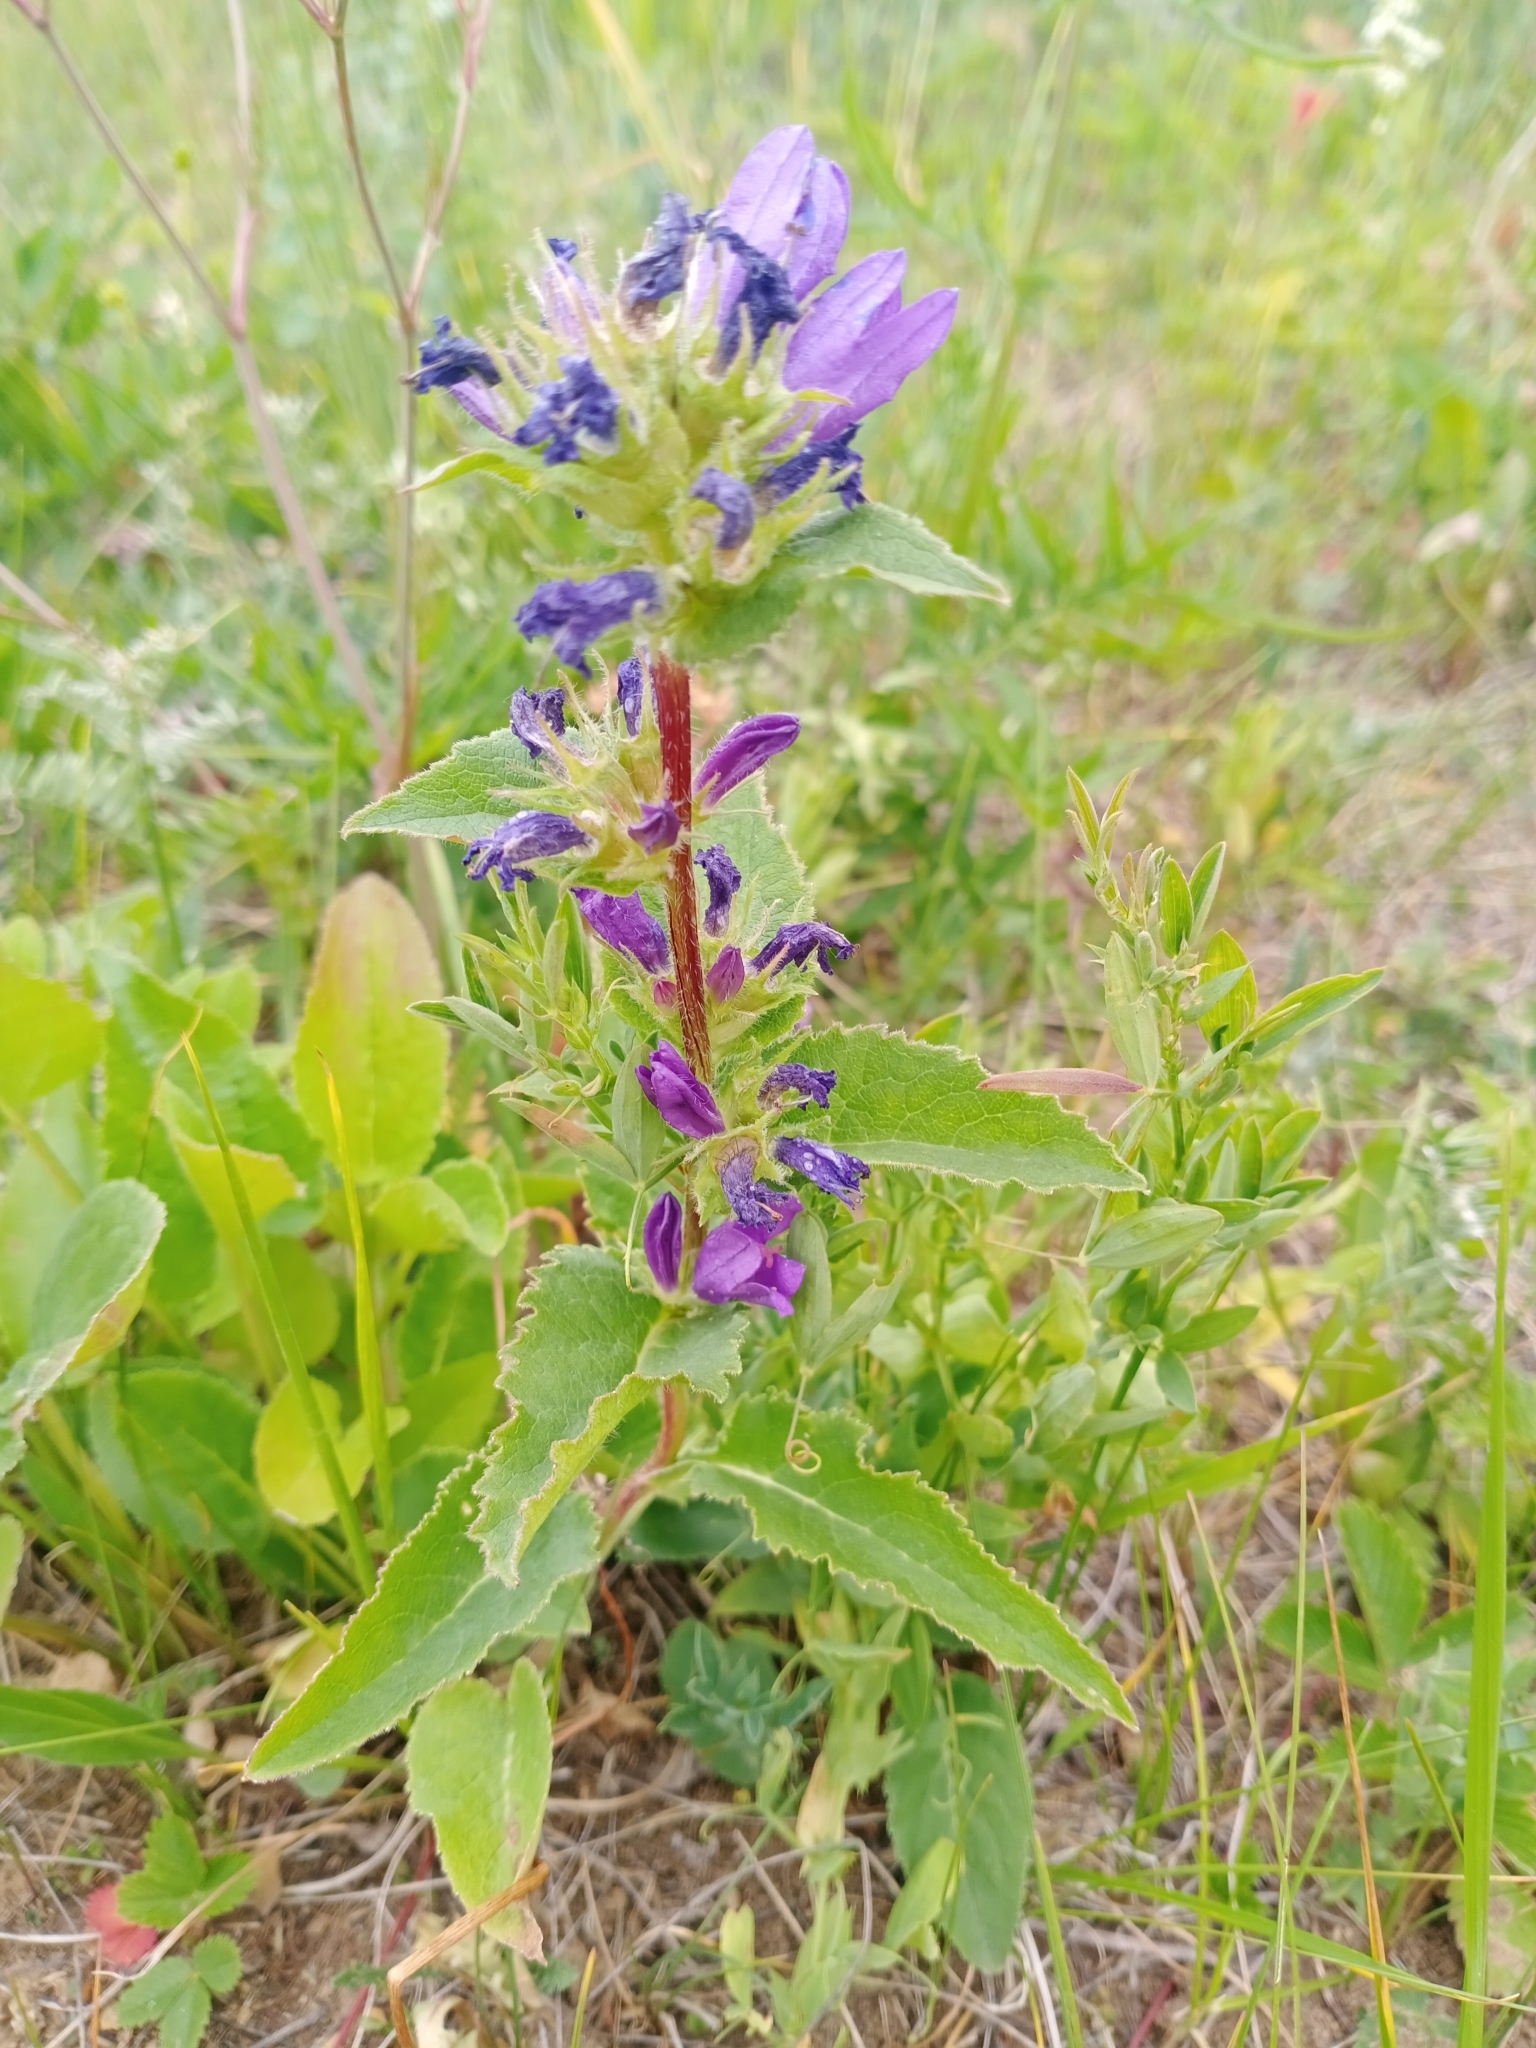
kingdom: Plantae
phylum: Tracheophyta
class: Magnoliopsida
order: Asterales
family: Campanulaceae
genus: Campanula
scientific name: Campanula glomerata
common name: Clustered bellflower
